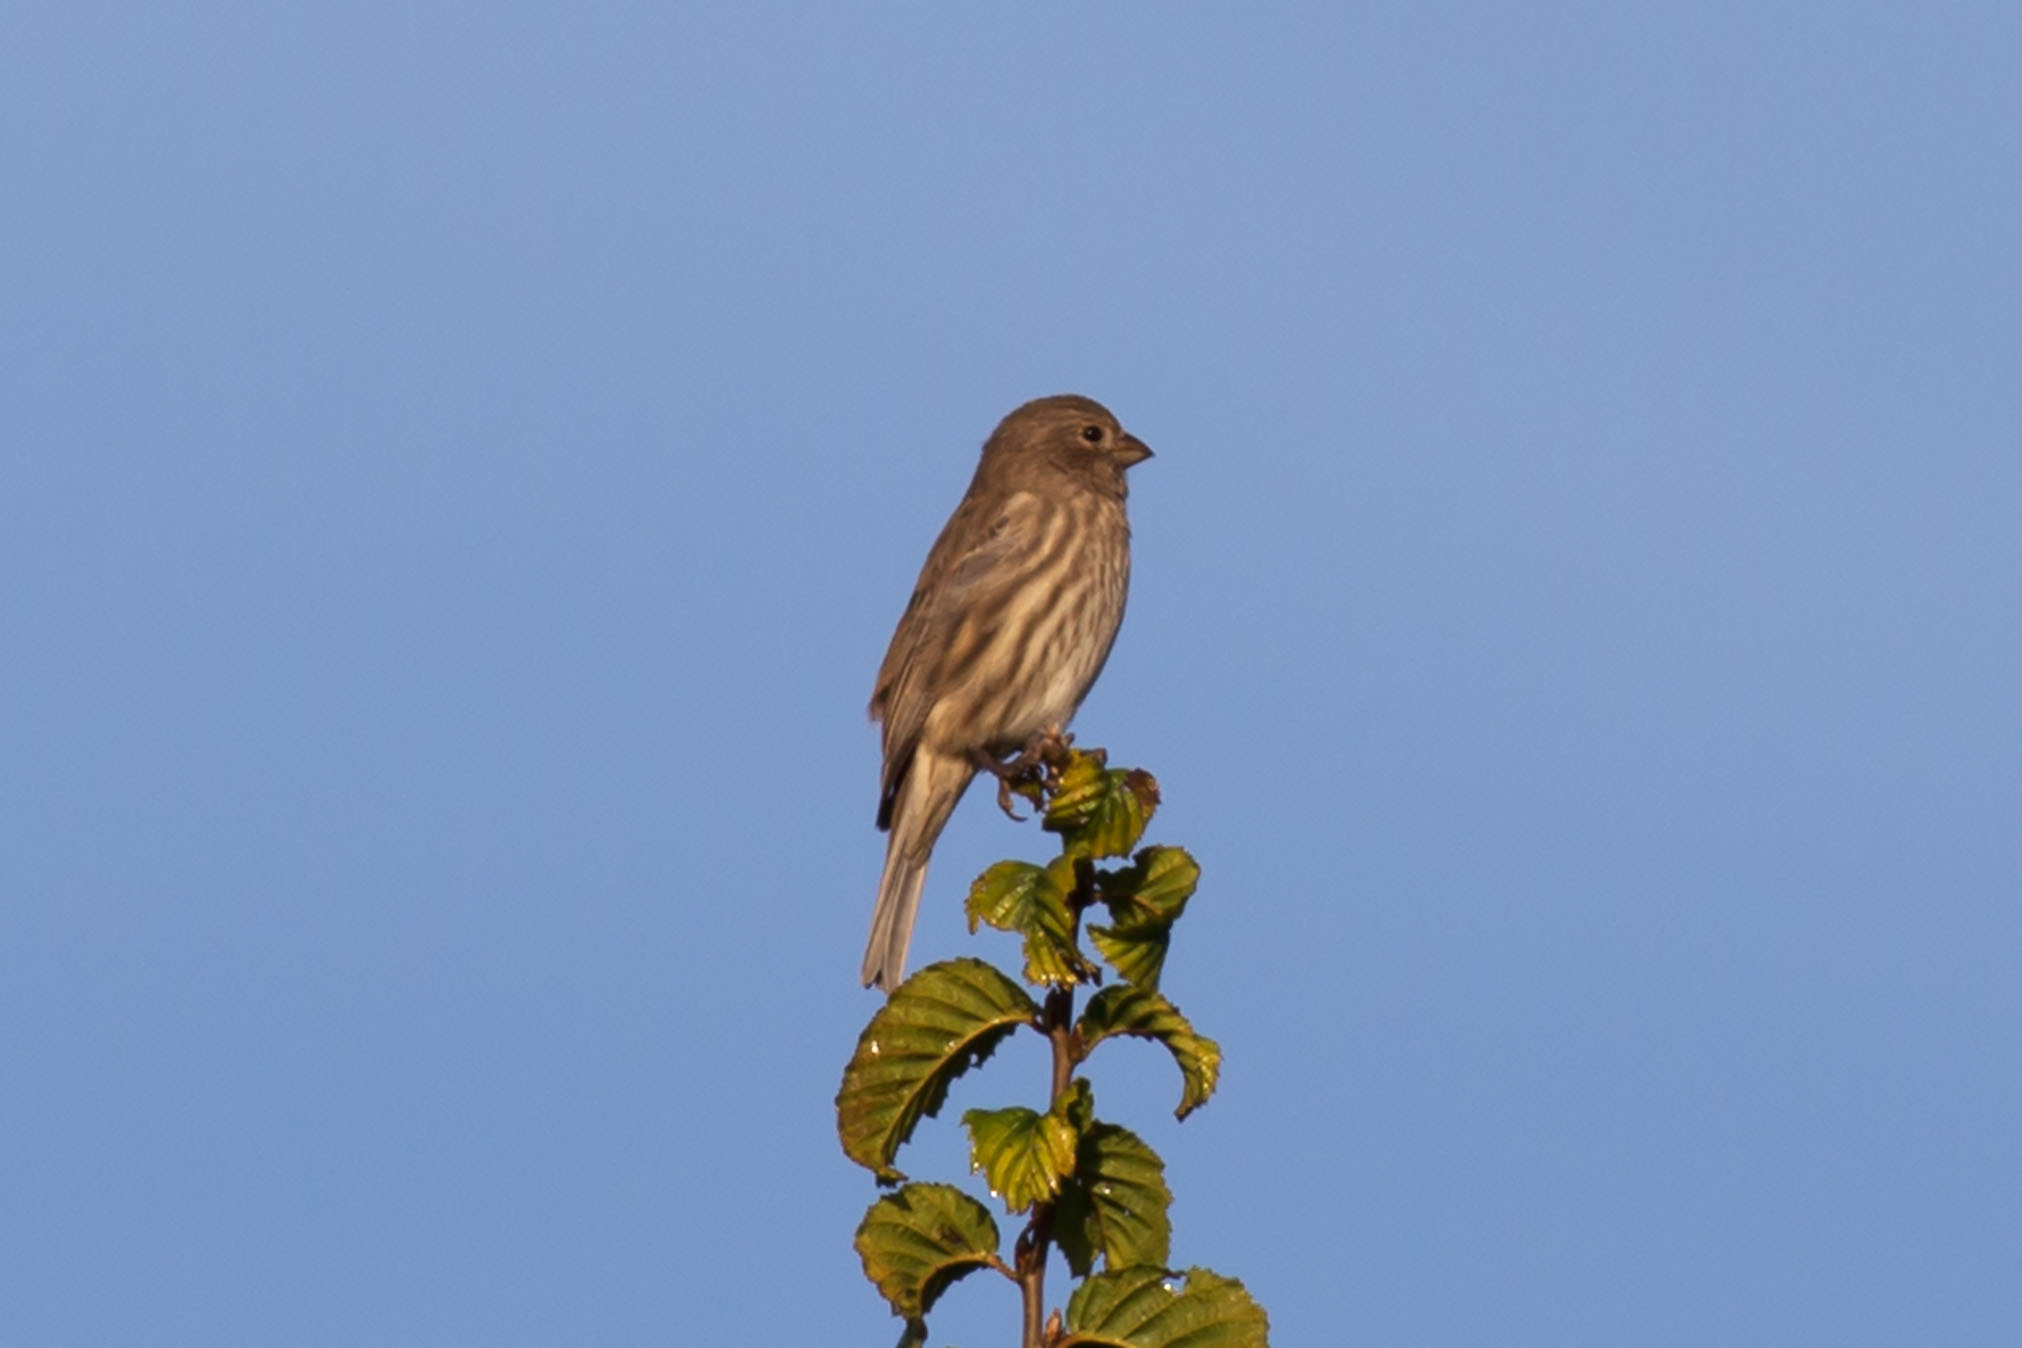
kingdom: Animalia
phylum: Chordata
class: Aves
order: Passeriformes
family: Fringillidae
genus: Haemorhous
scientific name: Haemorhous mexicanus
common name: House finch
